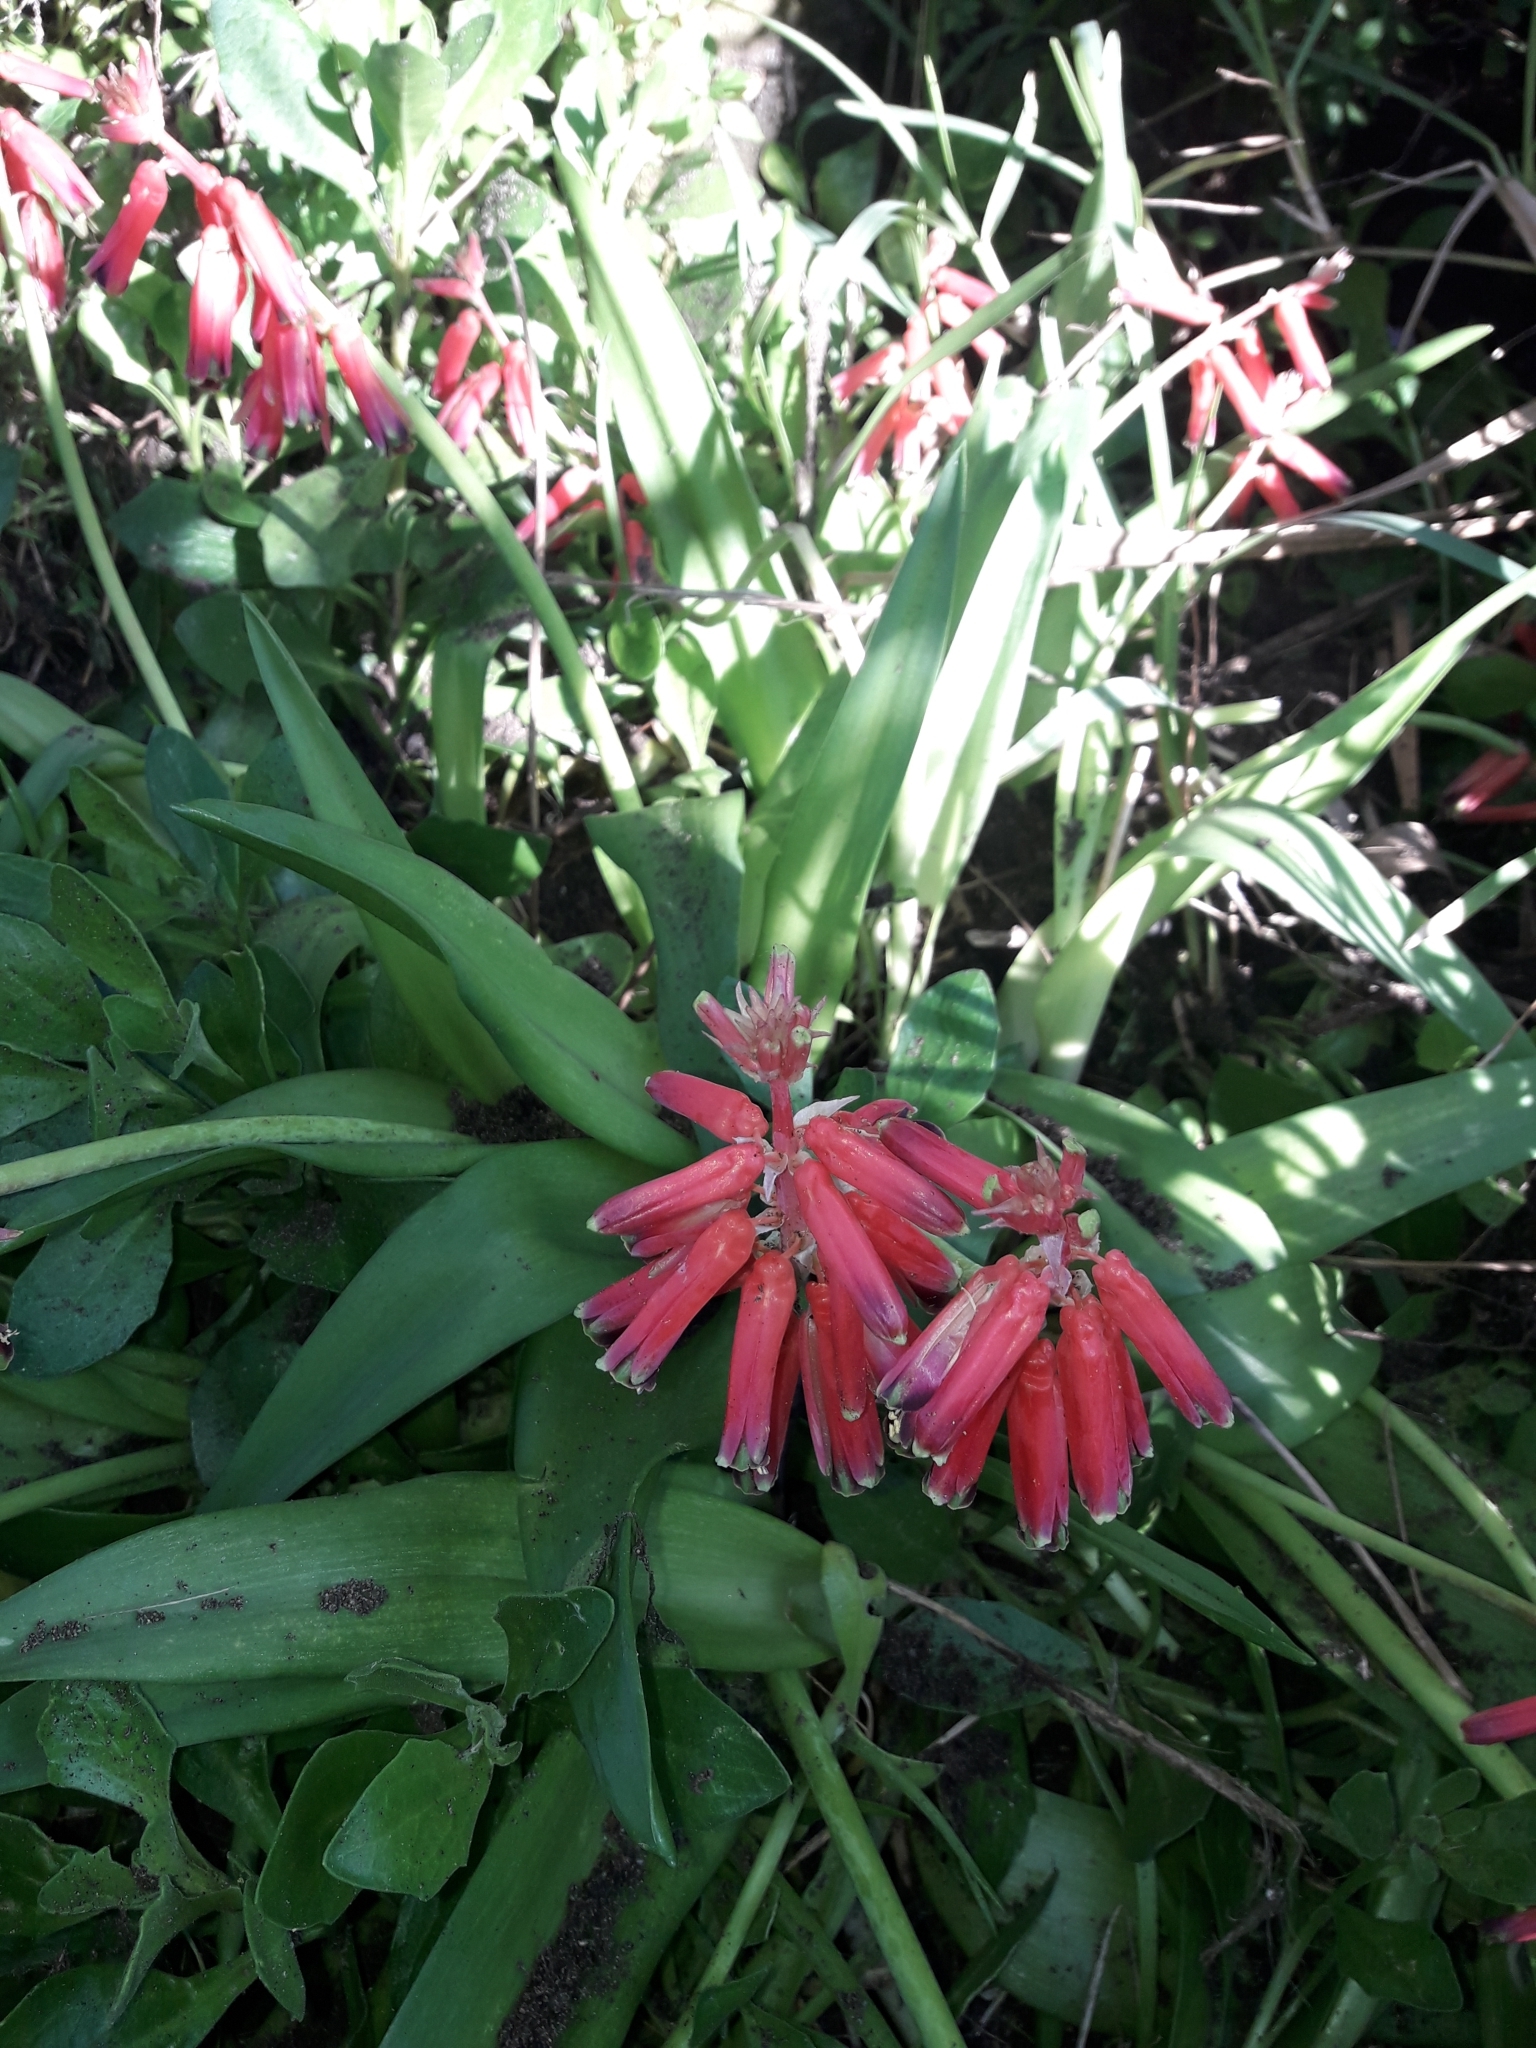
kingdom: Plantae
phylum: Tracheophyta
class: Liliopsida
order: Asparagales
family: Asparagaceae
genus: Lachenalia
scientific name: Lachenalia bulbifera
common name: Red lachenalia
